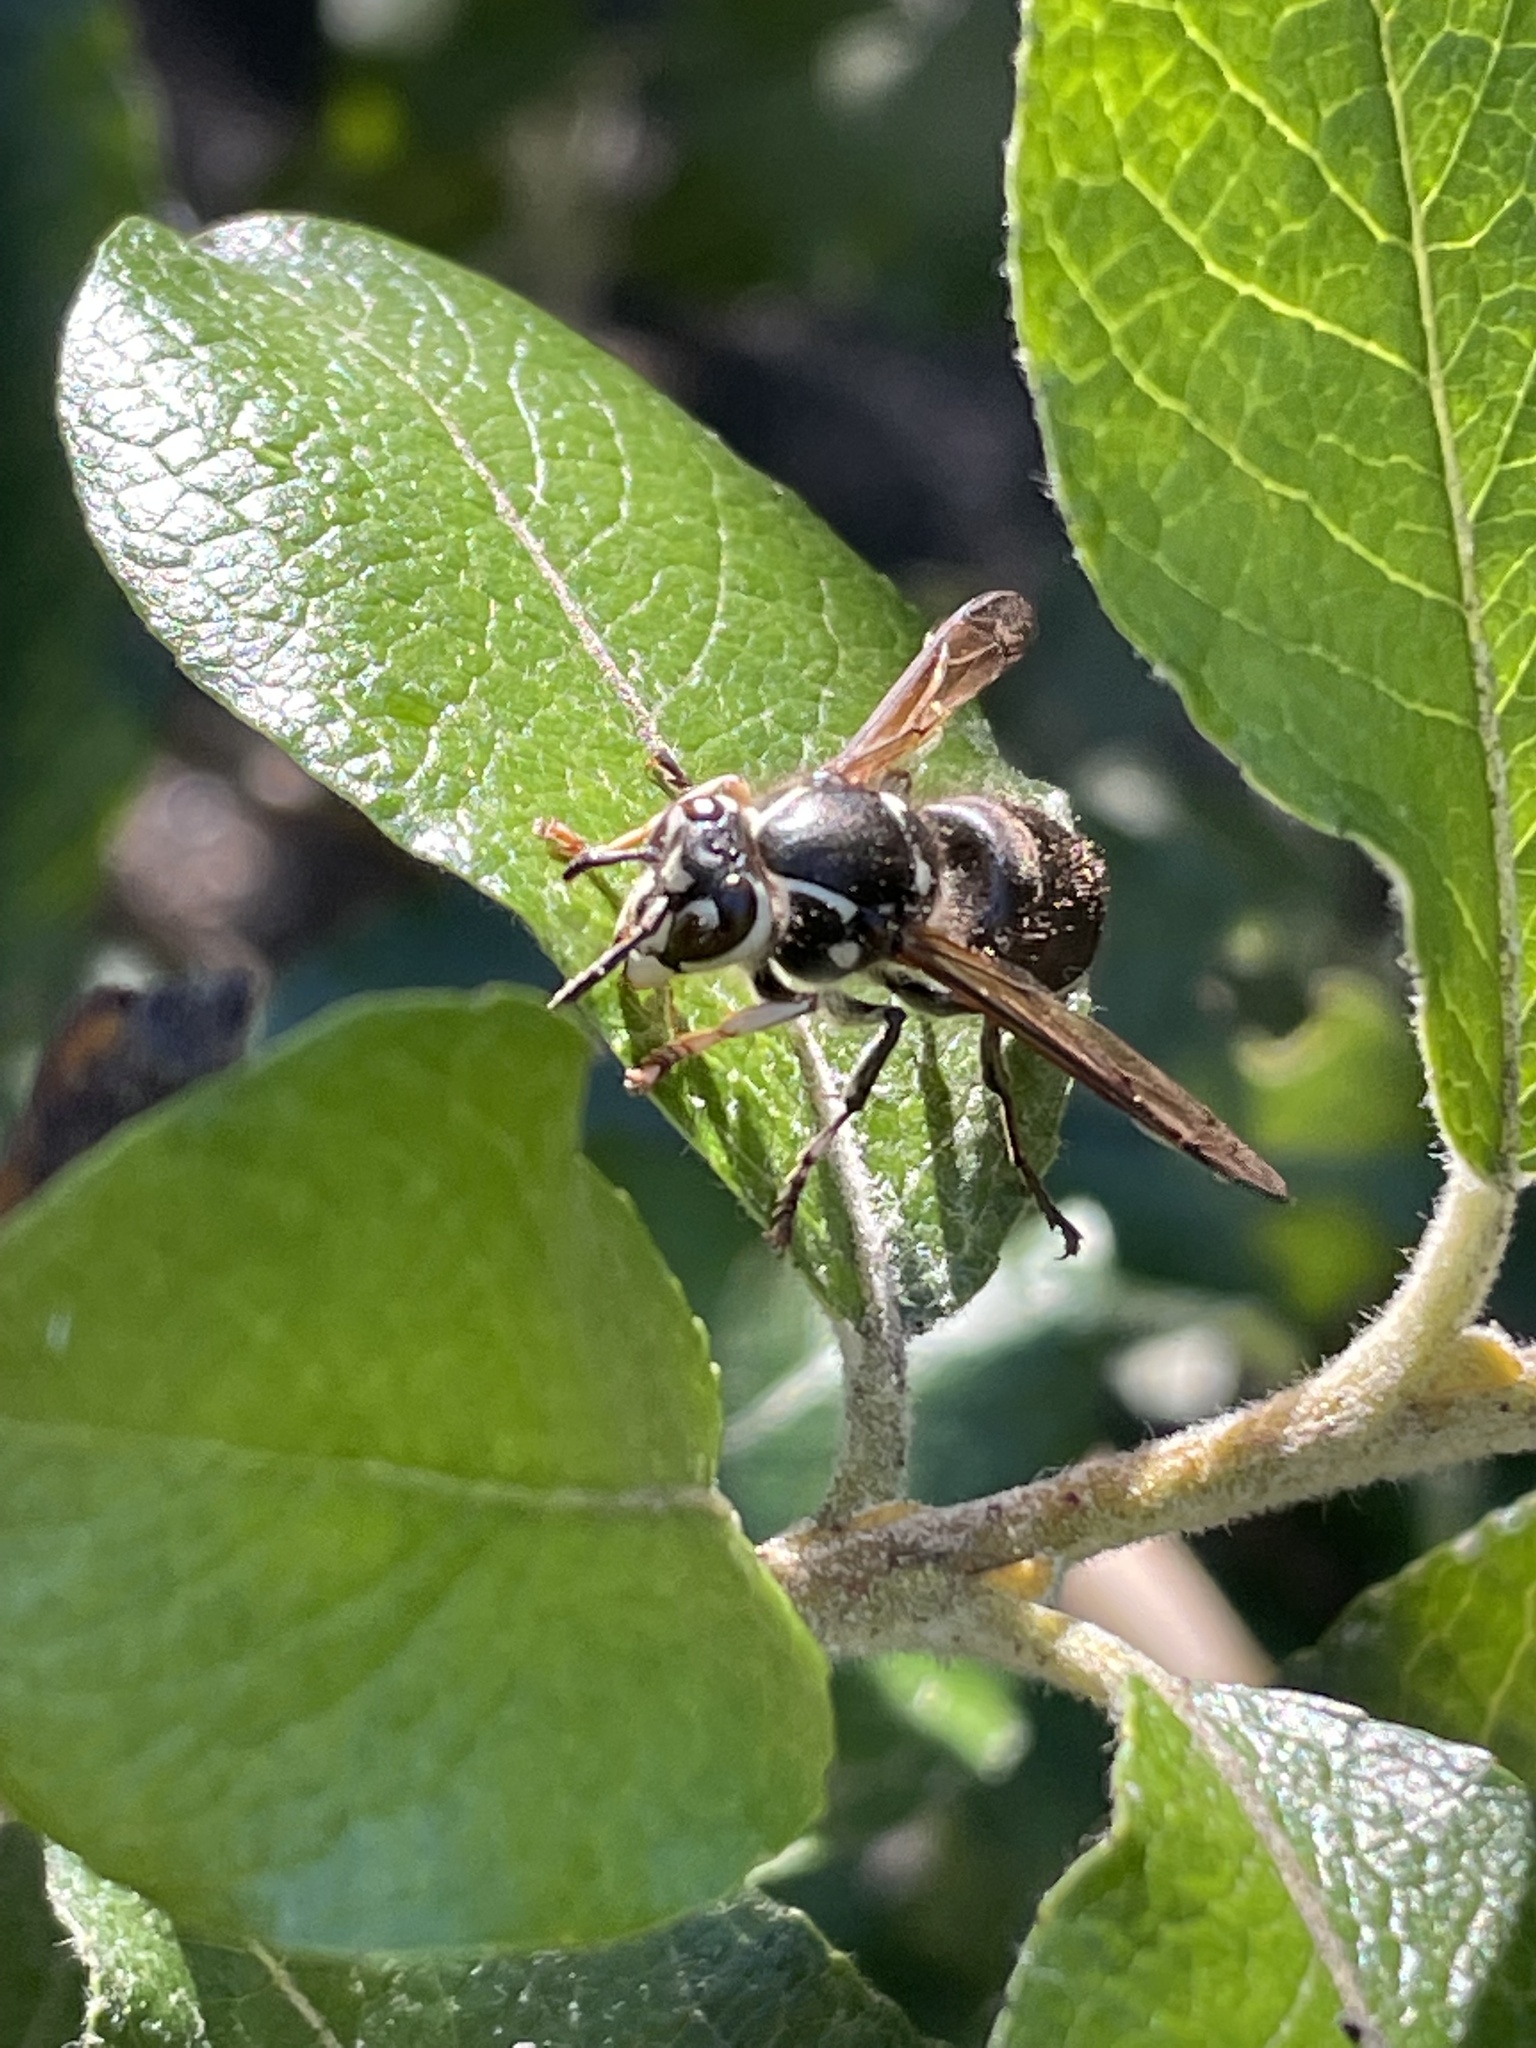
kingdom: Animalia
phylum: Arthropoda
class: Insecta
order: Hymenoptera
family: Vespidae
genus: Dolichovespula
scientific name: Dolichovespula maculata
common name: Bald-faced hornet
